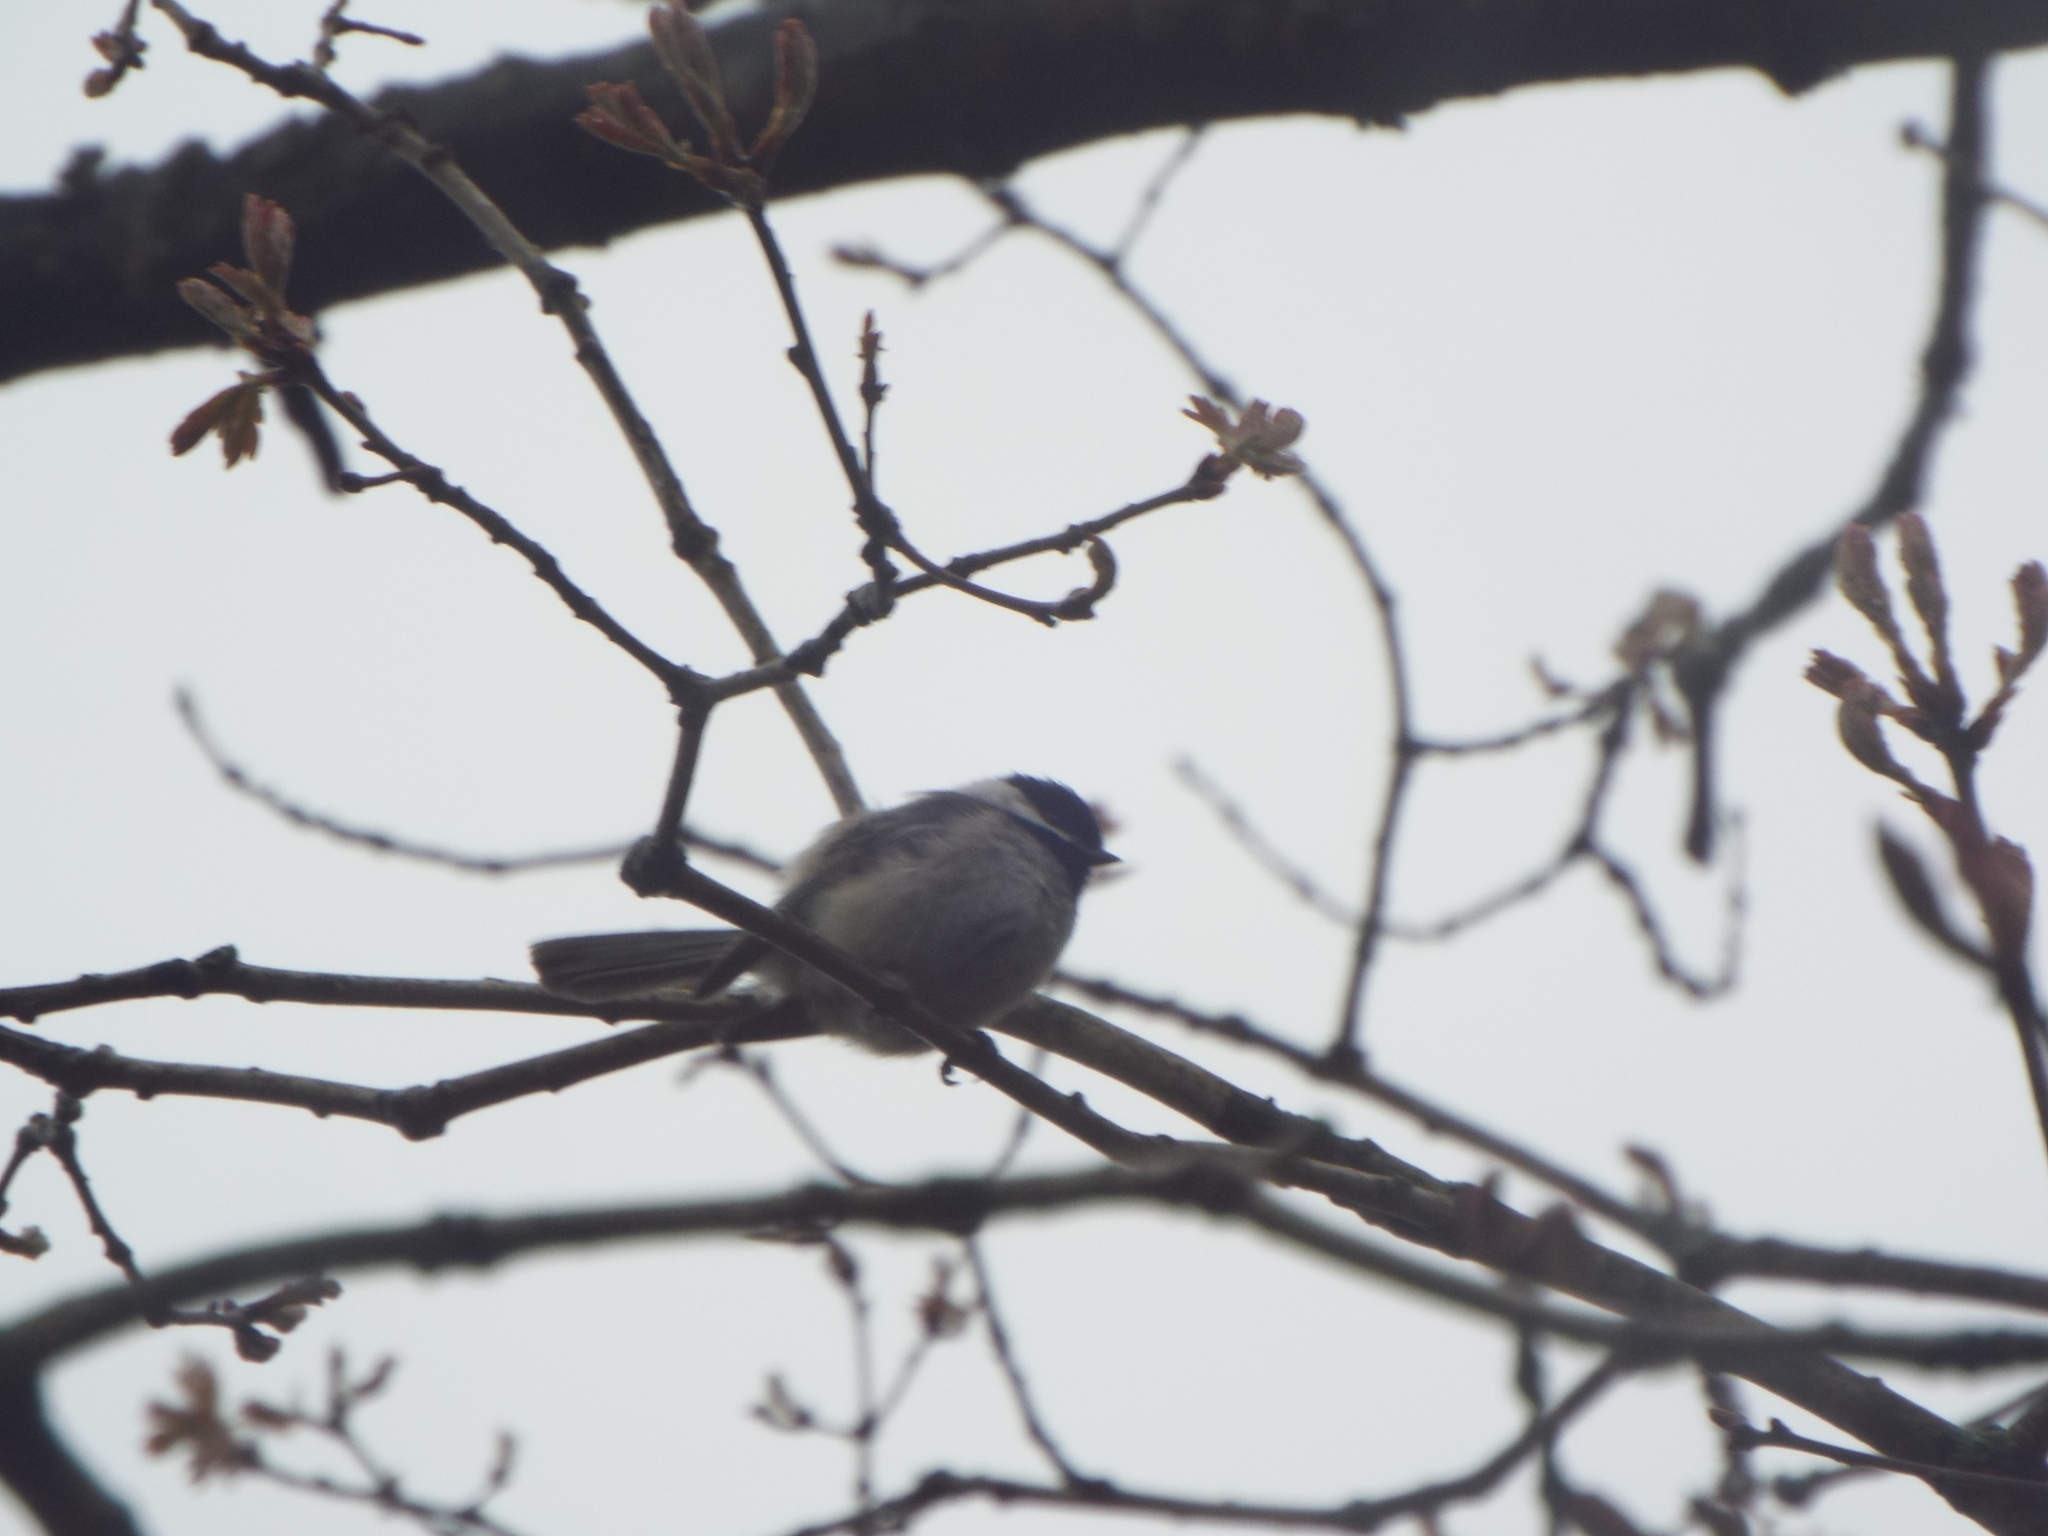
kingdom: Animalia
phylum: Chordata
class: Aves
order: Passeriformes
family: Paridae
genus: Poecile
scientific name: Poecile atricapillus
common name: Black-capped chickadee
